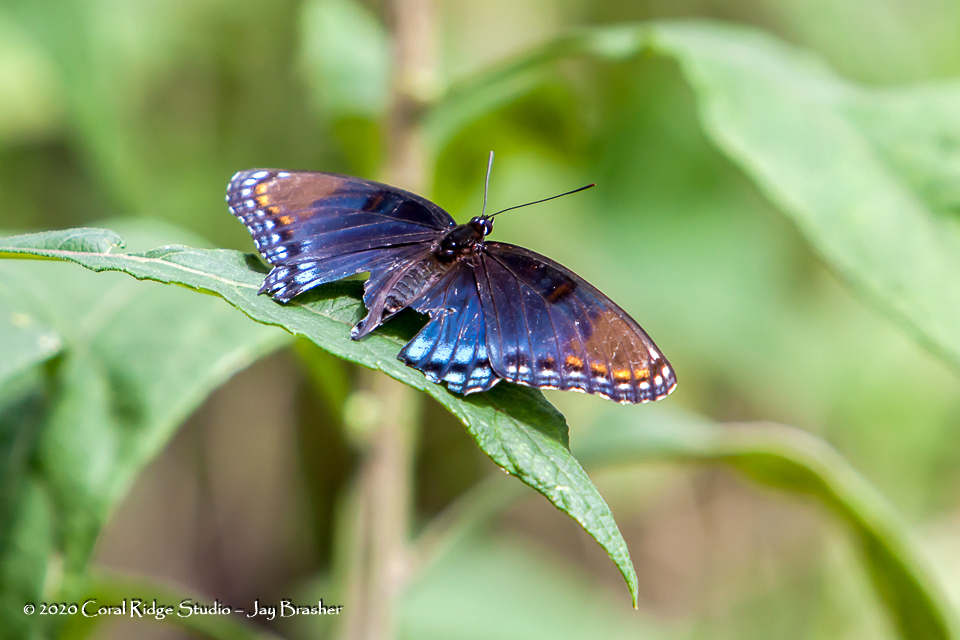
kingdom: Animalia
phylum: Arthropoda
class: Insecta
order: Lepidoptera
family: Nymphalidae
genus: Limenitis
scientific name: Limenitis astyanax
